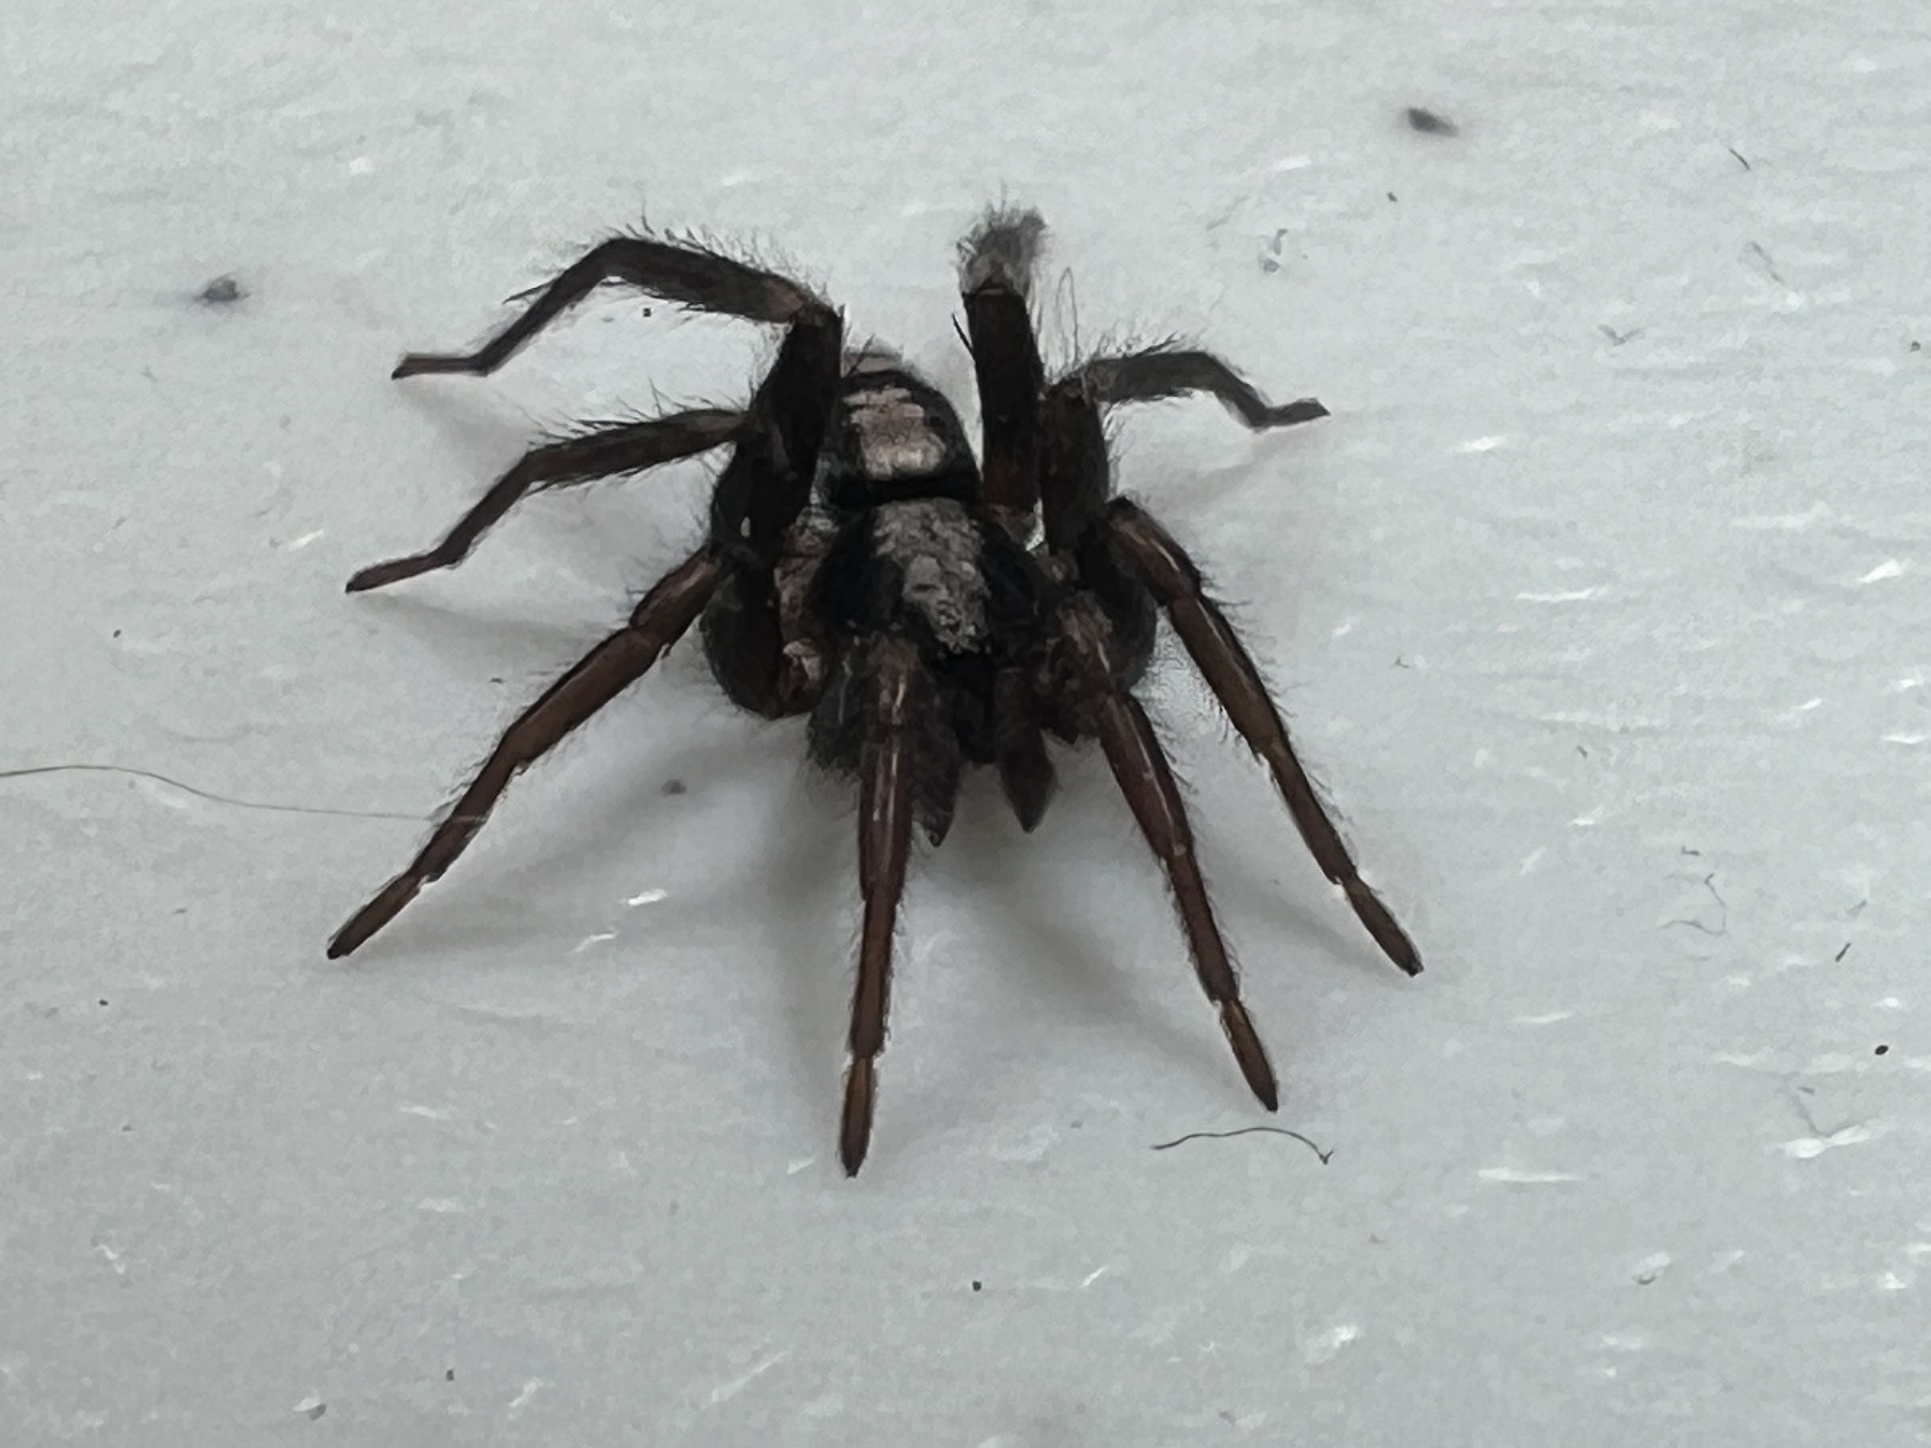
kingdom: Animalia
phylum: Arthropoda
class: Arachnida
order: Araneae
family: Gnaphosidae
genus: Herpyllus
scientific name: Herpyllus ecclesiasticus
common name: Eastern parson spider
